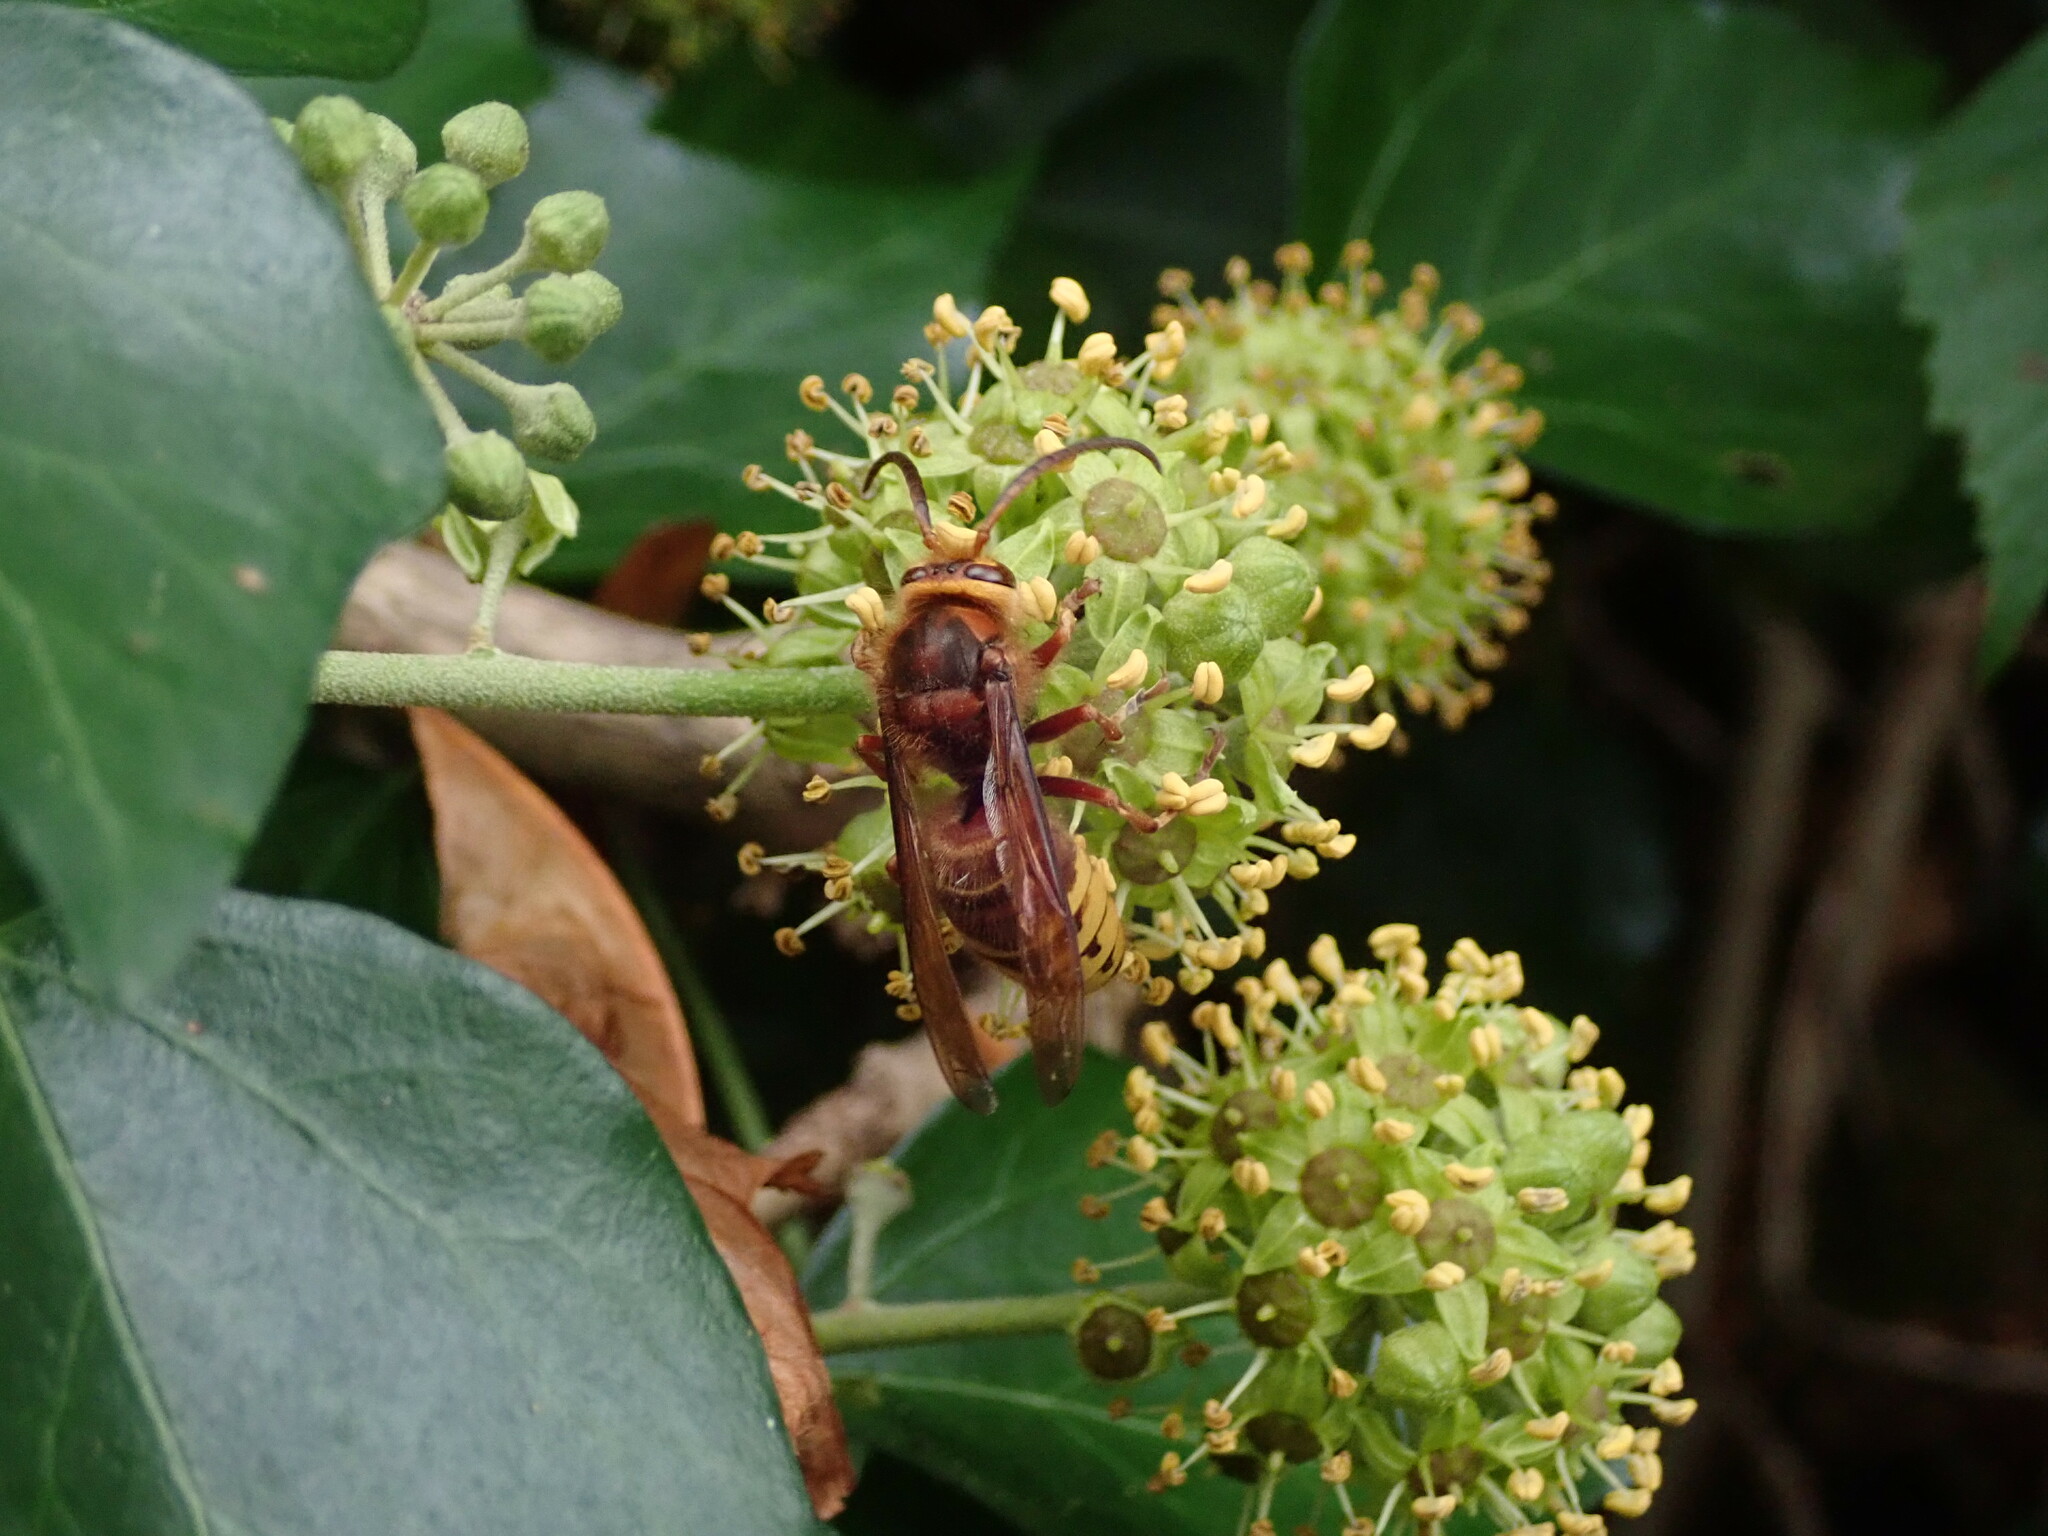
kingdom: Animalia
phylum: Arthropoda
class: Insecta
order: Hymenoptera
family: Vespidae
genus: Vespa
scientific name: Vespa crabro
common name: Hornet
